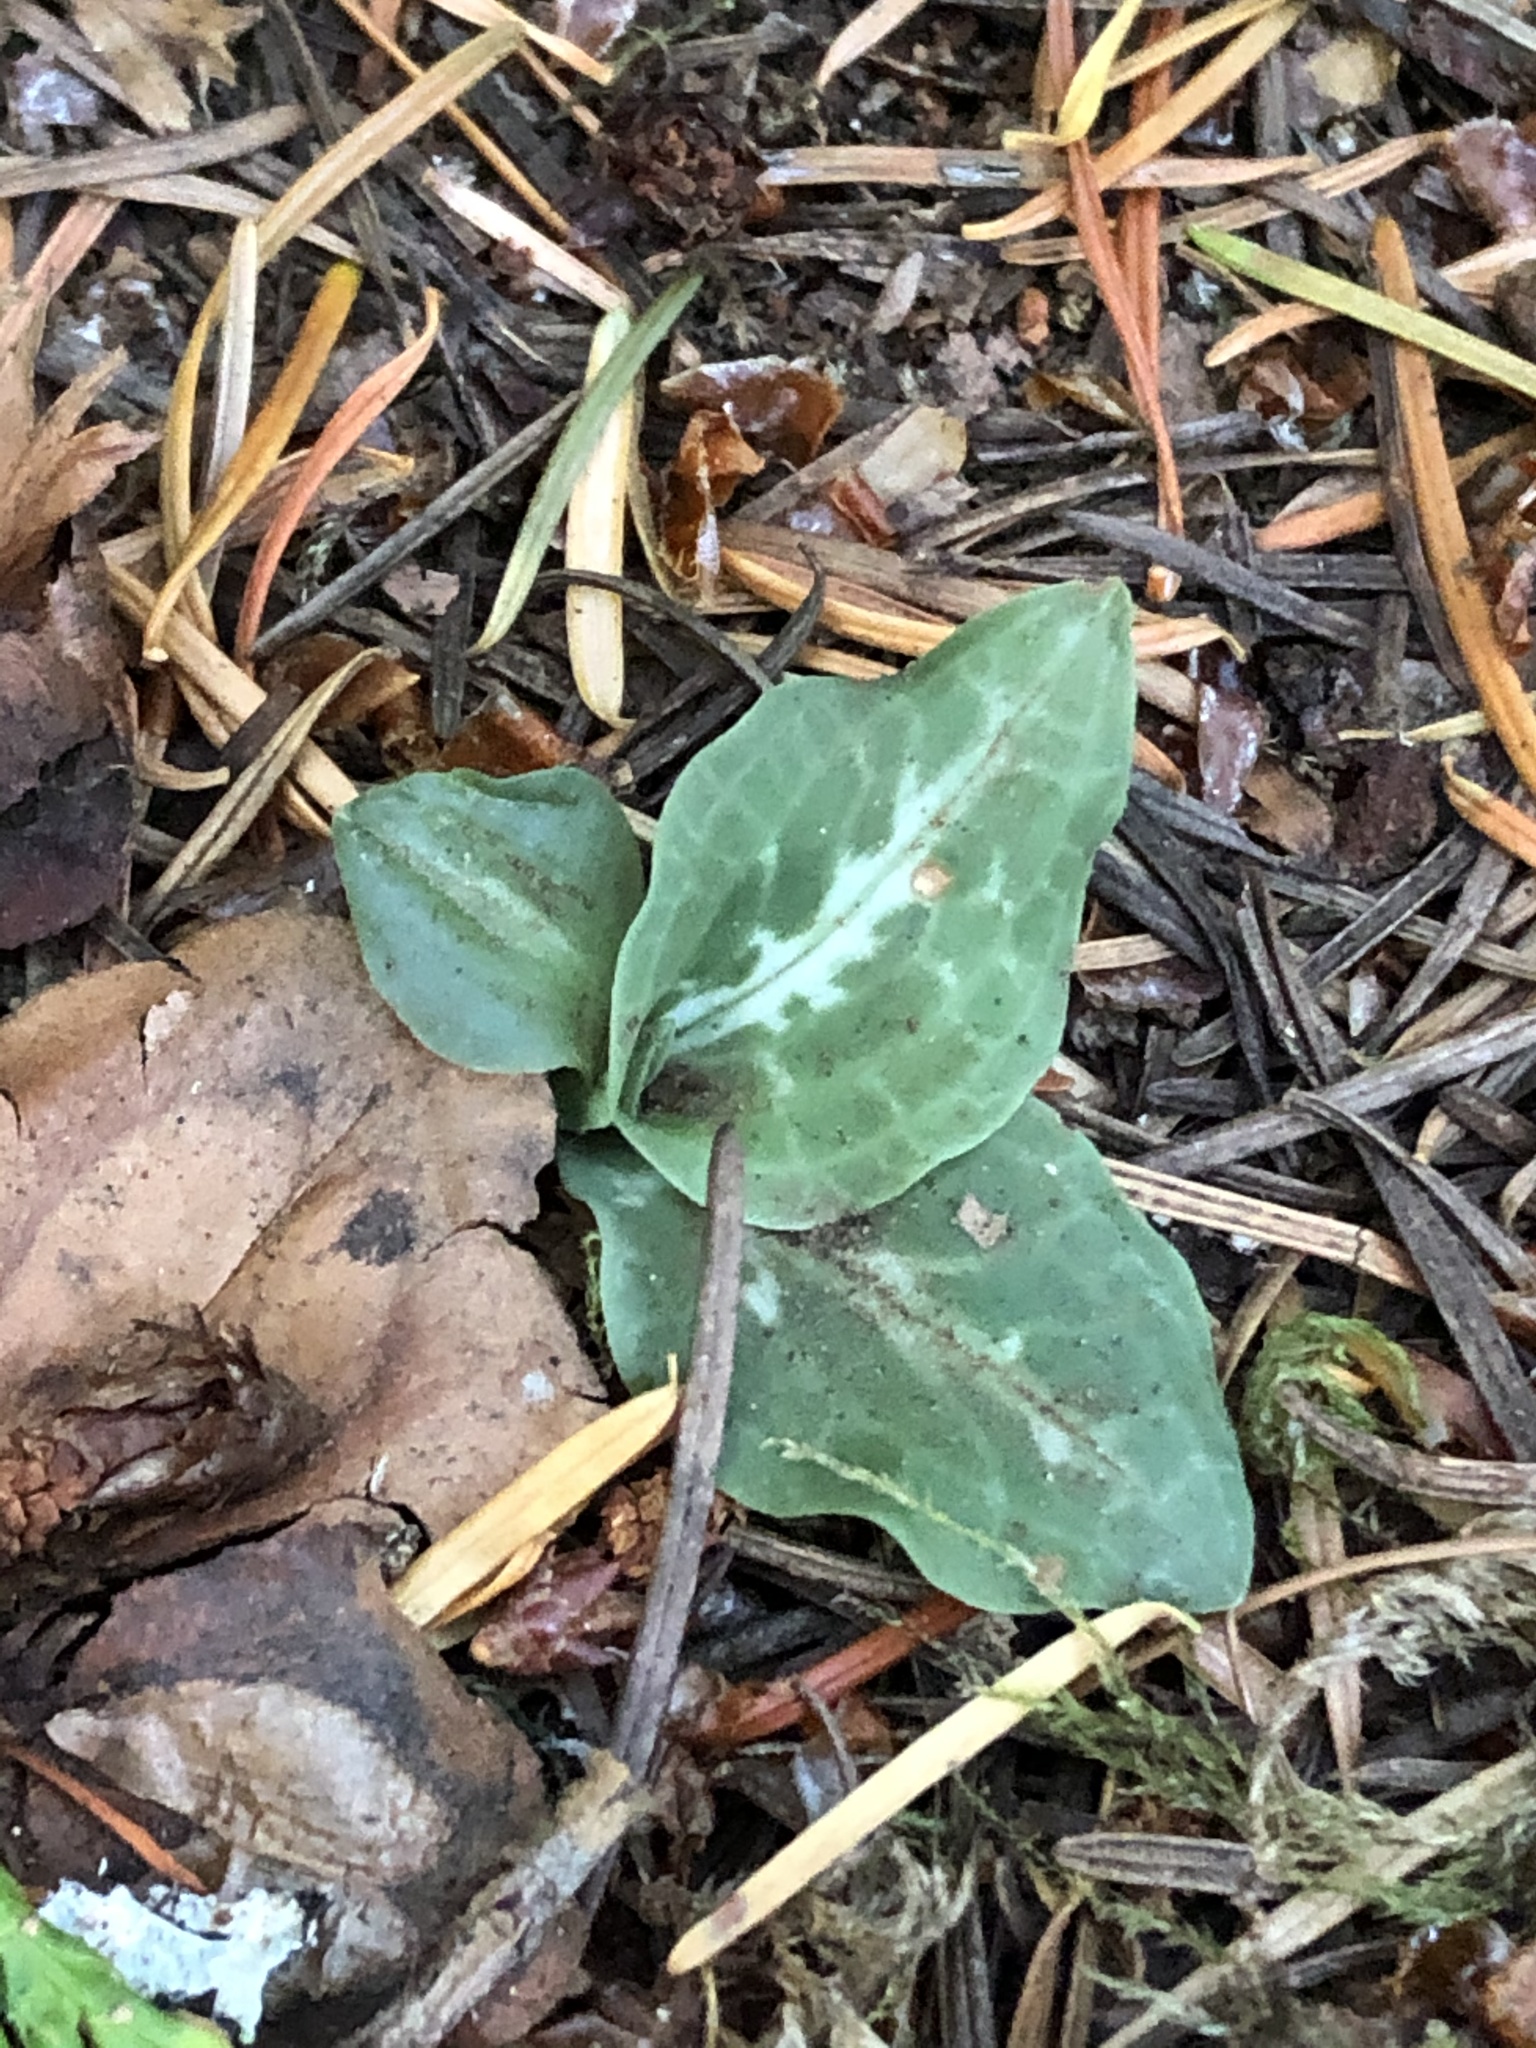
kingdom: Plantae
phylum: Tracheophyta
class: Liliopsida
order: Asparagales
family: Orchidaceae
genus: Goodyera
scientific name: Goodyera oblongifolia
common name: Giant rattlesnake-plantain
